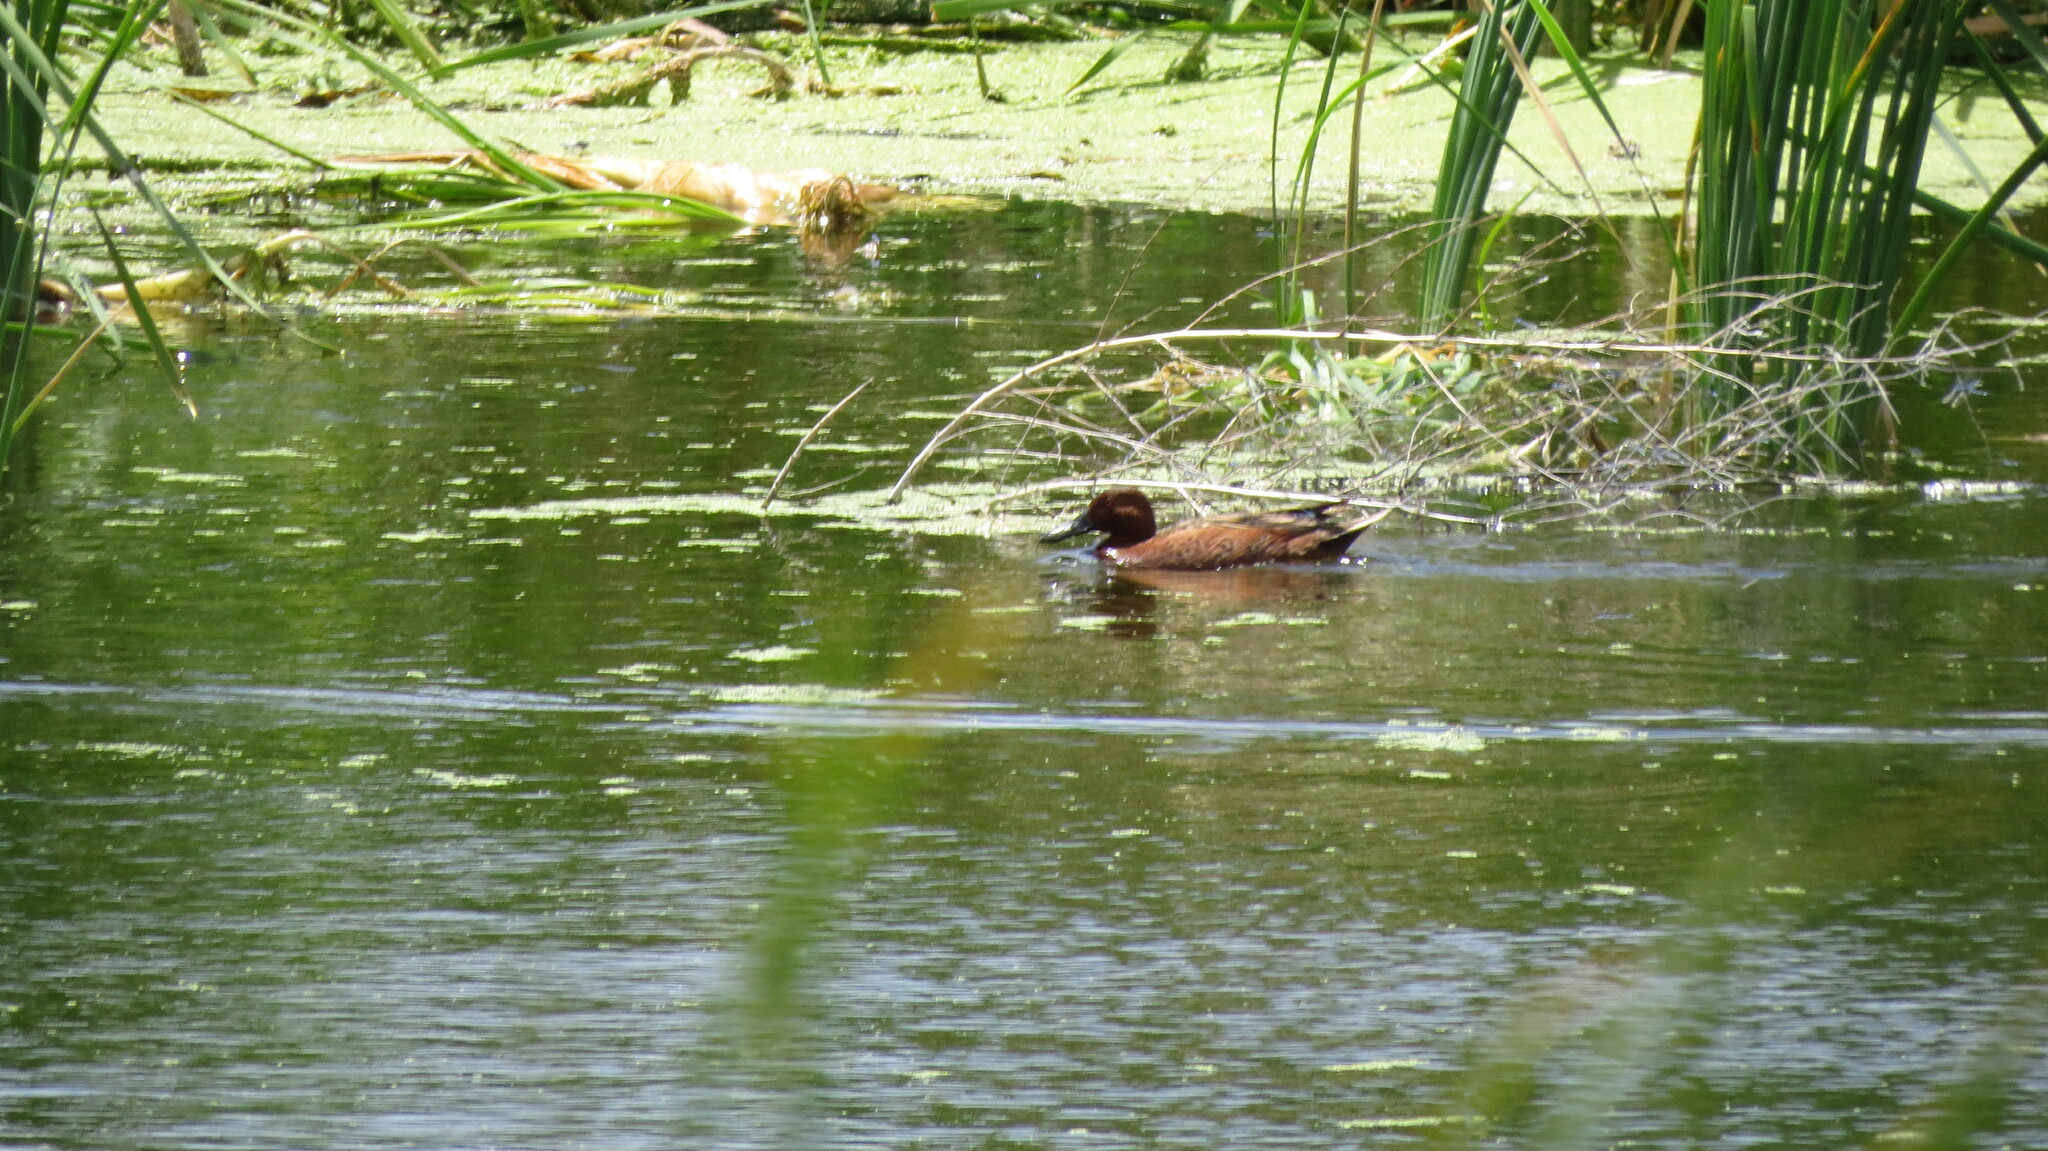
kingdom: Animalia
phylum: Chordata
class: Aves
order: Anseriformes
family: Anatidae
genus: Spatula
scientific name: Spatula cyanoptera
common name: Cinnamon teal
